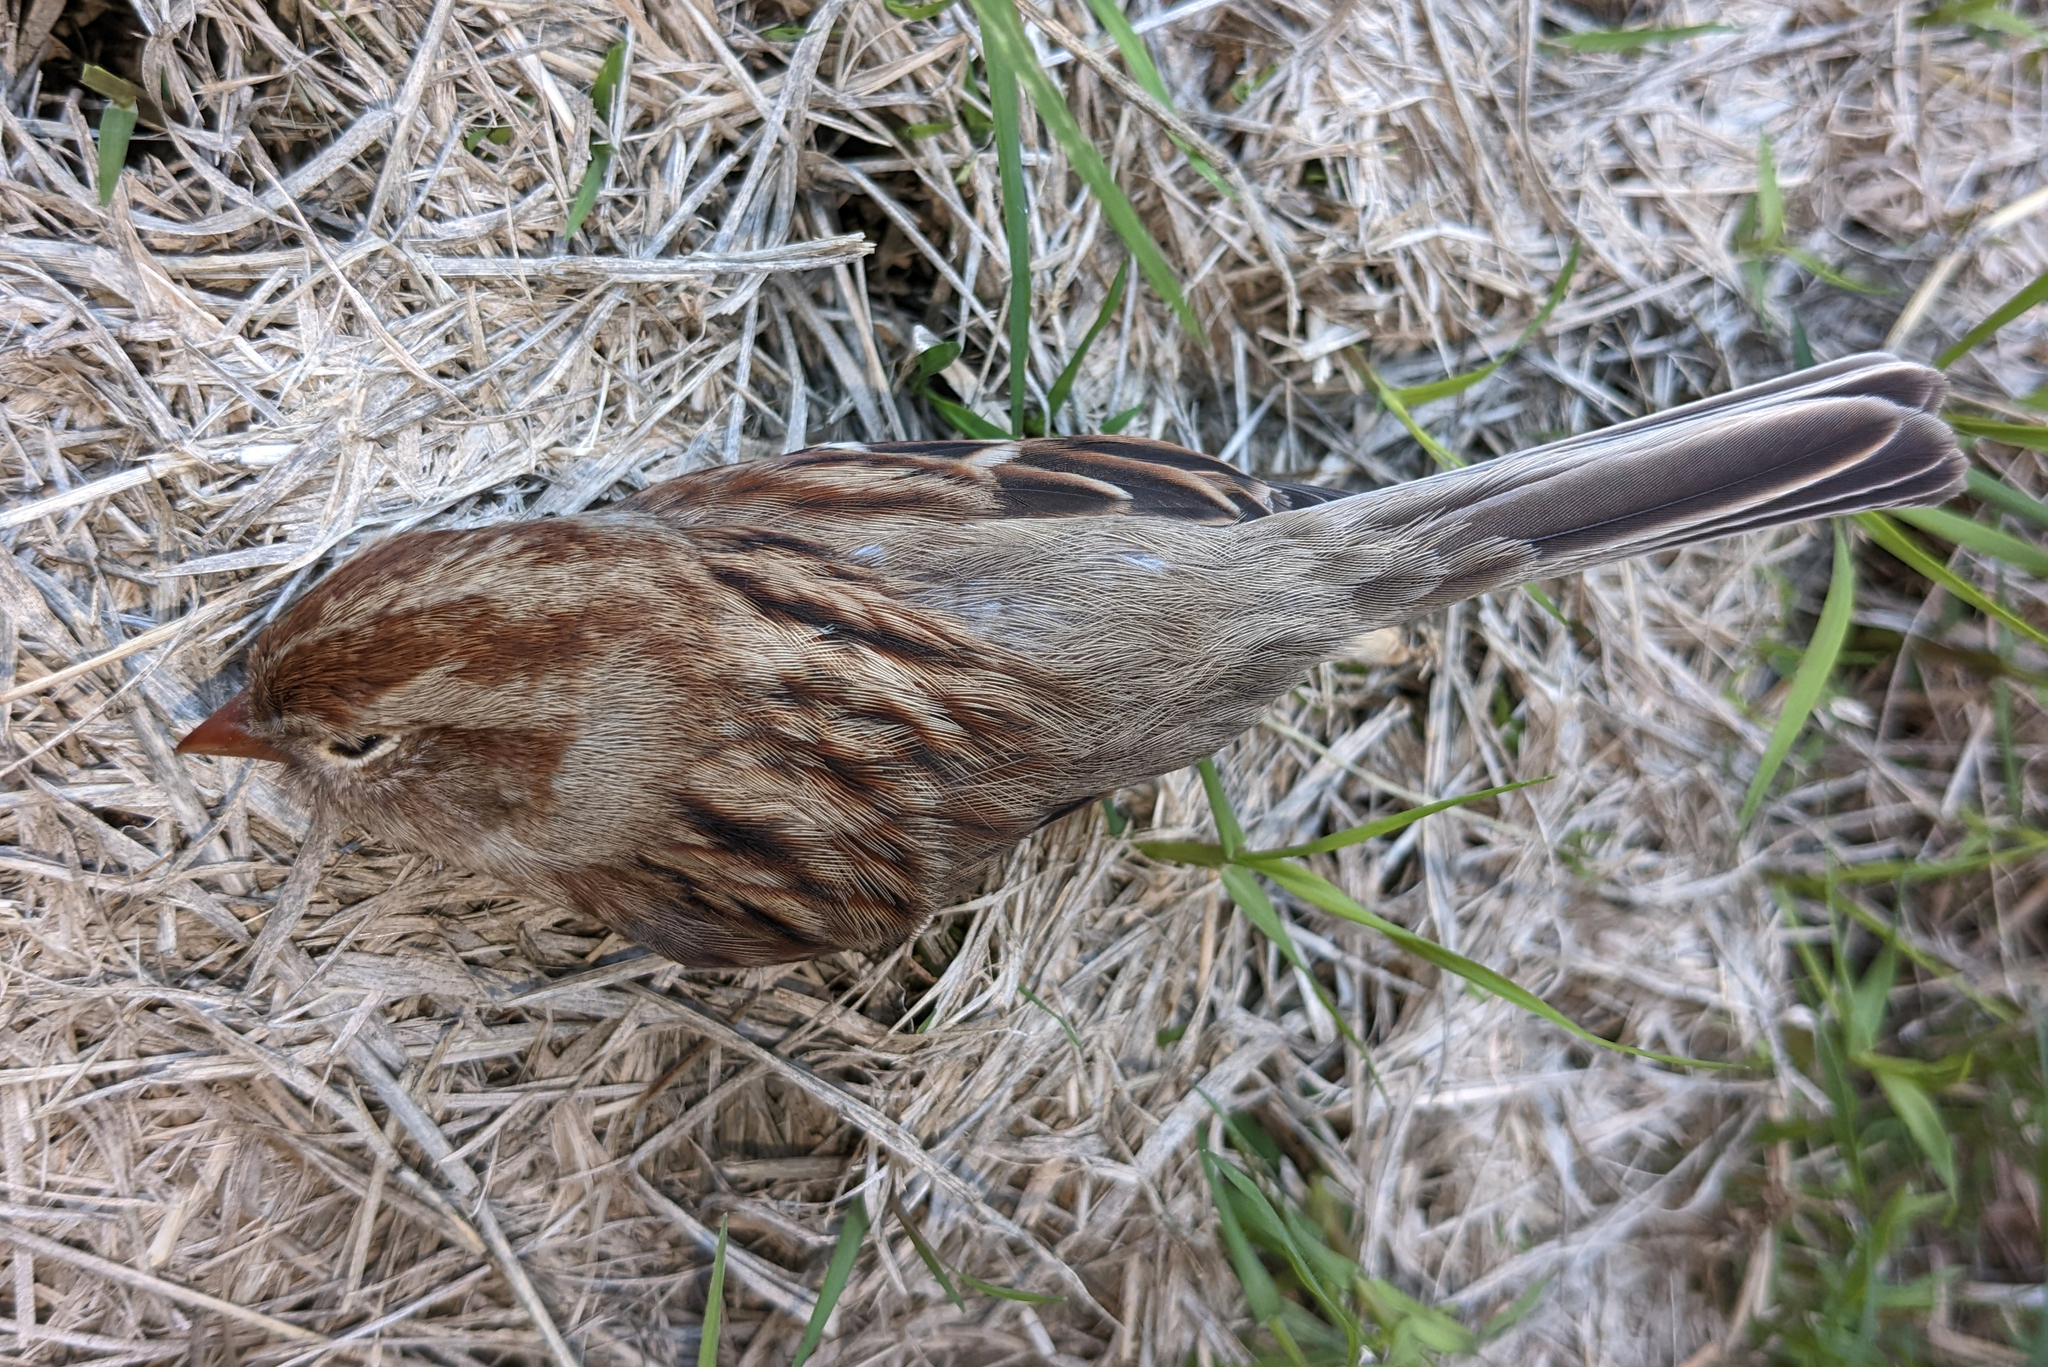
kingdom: Animalia
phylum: Chordata
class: Aves
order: Passeriformes
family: Passerellidae
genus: Spizella
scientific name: Spizella pusilla
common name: Field sparrow
